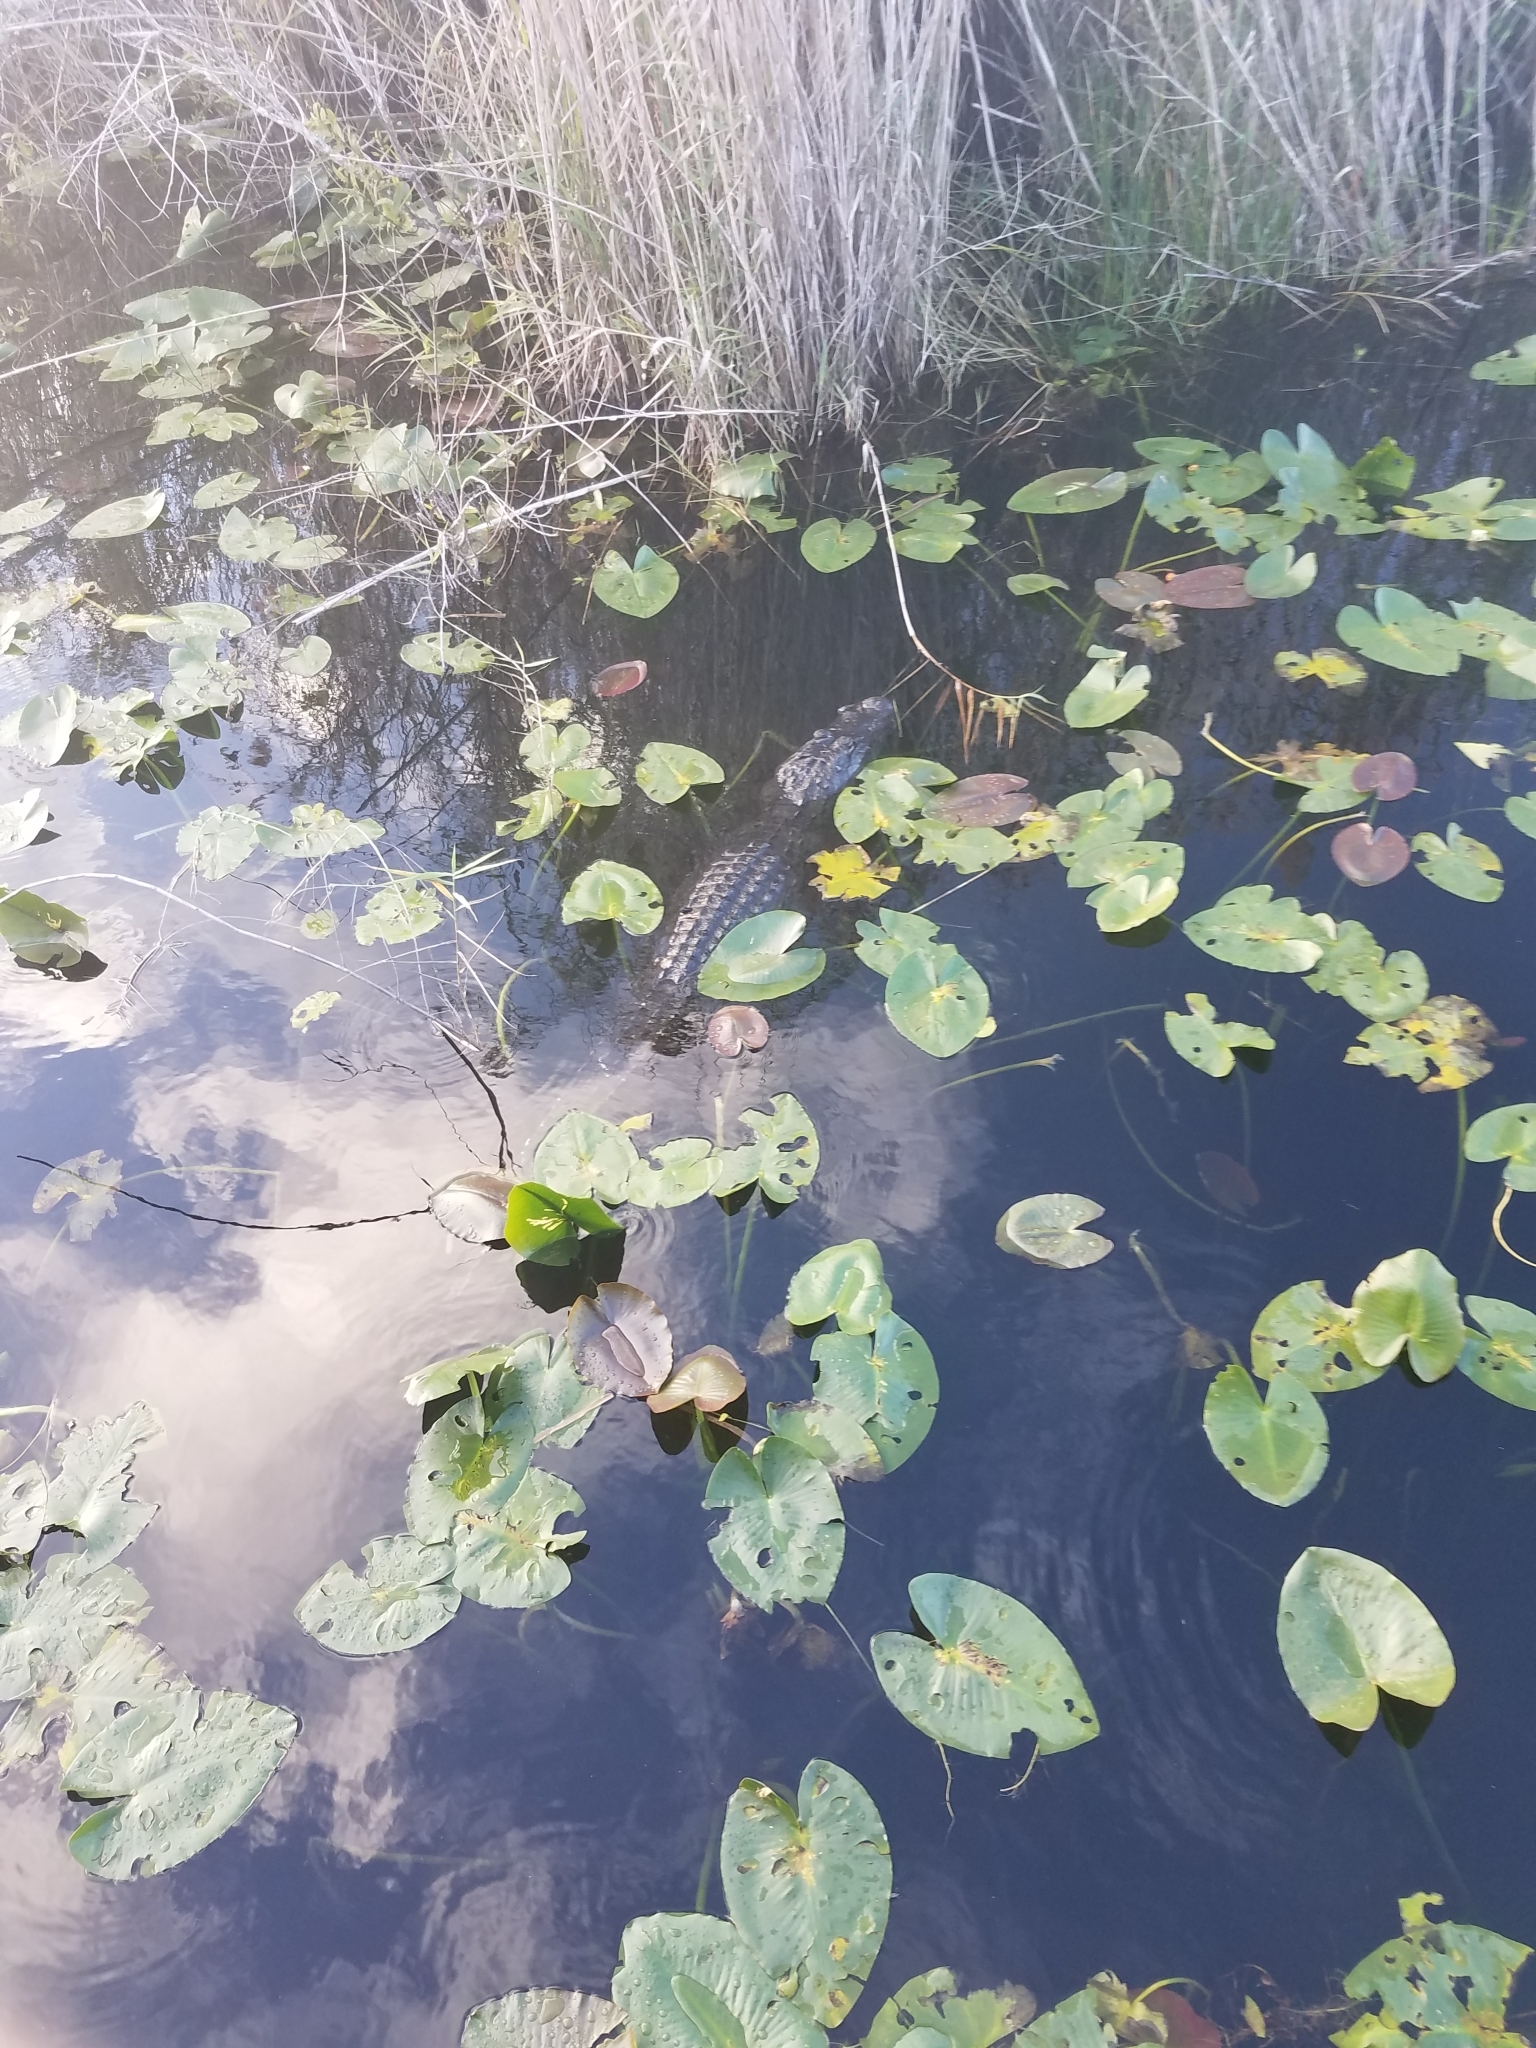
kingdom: Animalia
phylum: Chordata
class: Crocodylia
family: Alligatoridae
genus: Alligator
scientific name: Alligator mississippiensis
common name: American alligator
